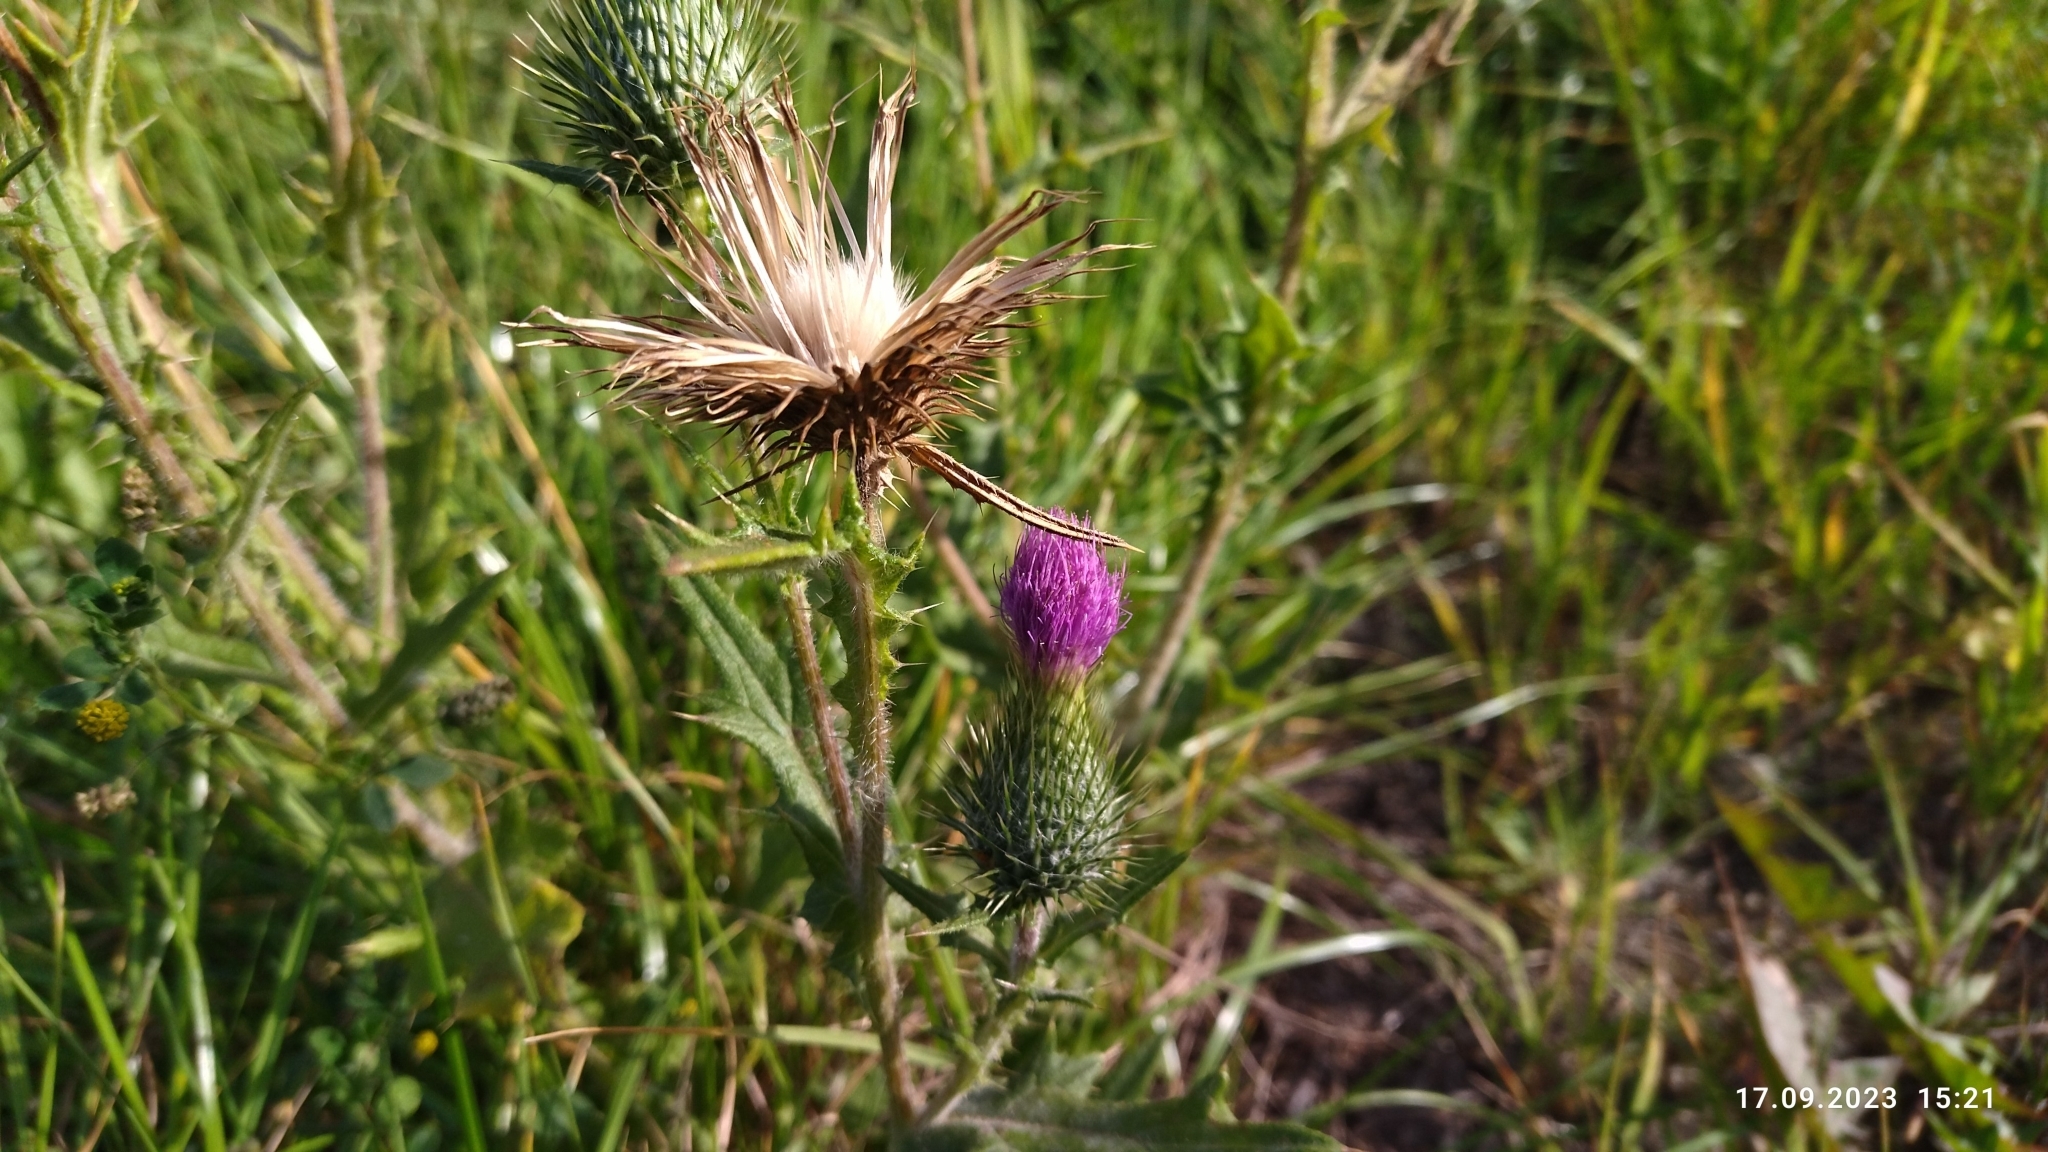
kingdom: Plantae
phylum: Tracheophyta
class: Magnoliopsida
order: Asterales
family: Asteraceae
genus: Cirsium
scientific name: Cirsium vulgare
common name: Bull thistle
